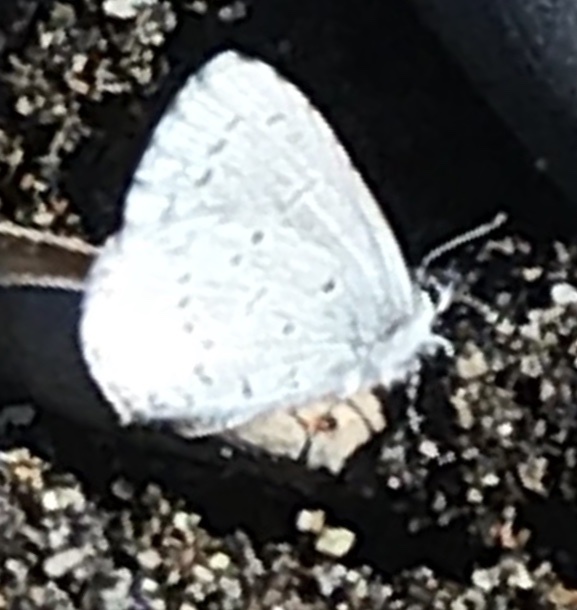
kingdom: Animalia
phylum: Arthropoda
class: Insecta
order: Lepidoptera
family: Lycaenidae
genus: Celastrina
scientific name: Celastrina ladon
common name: Spring azure
